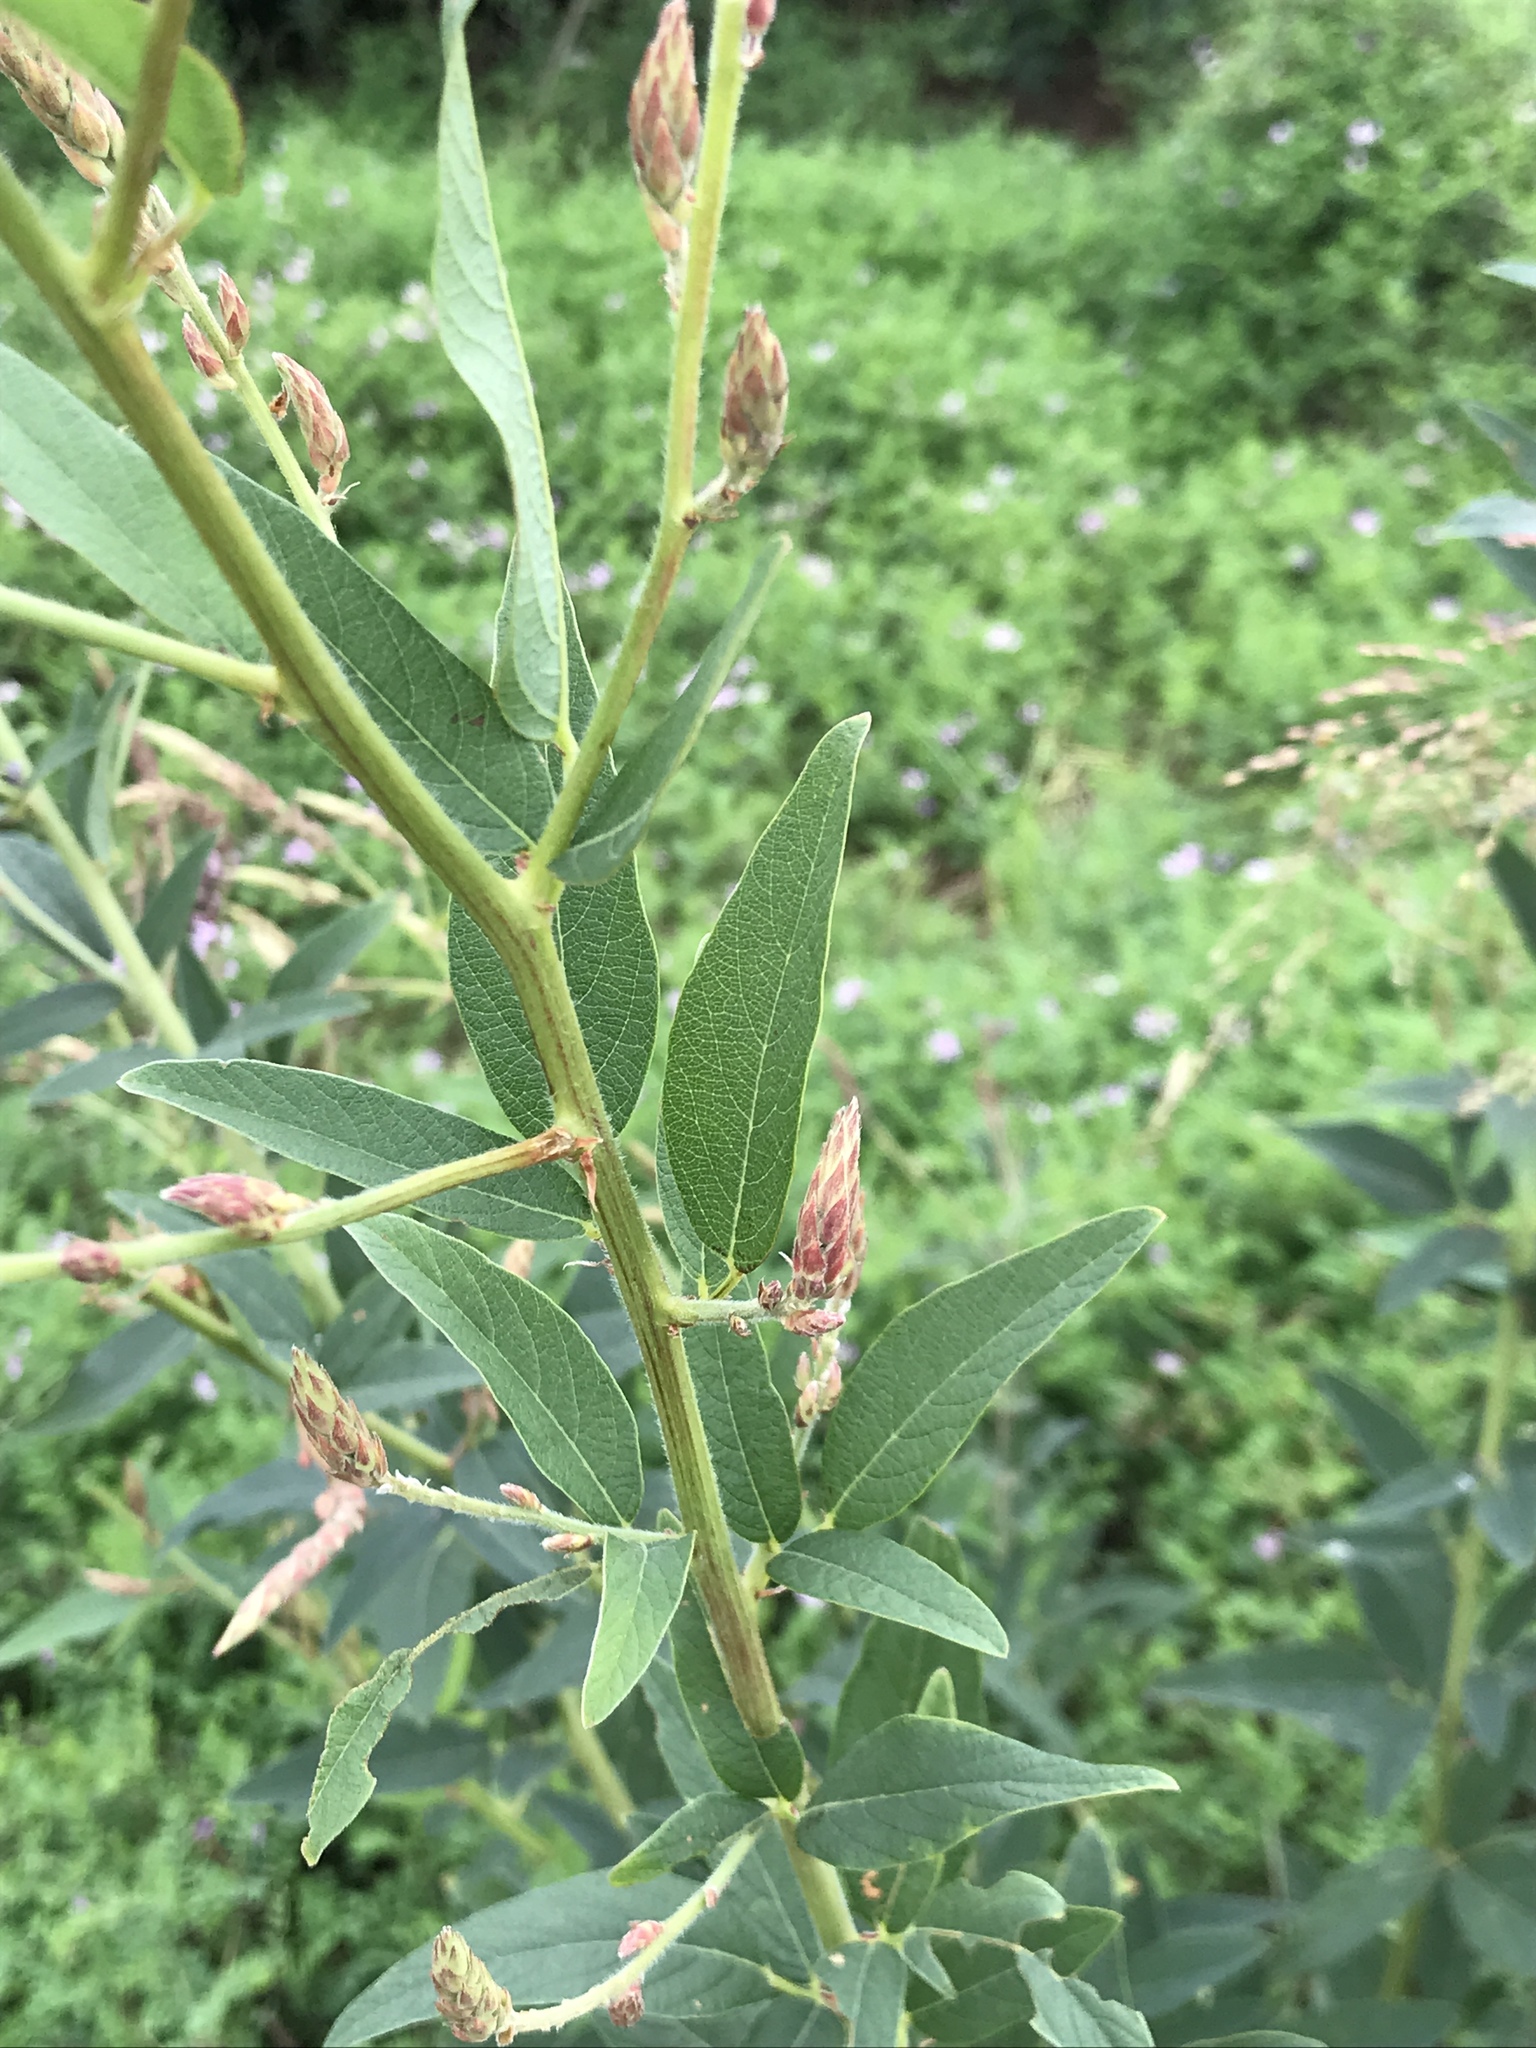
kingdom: Plantae
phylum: Tracheophyta
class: Magnoliopsida
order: Fabales
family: Fabaceae
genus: Desmodium
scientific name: Desmodium canadense
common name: Canada tick-trefoil
